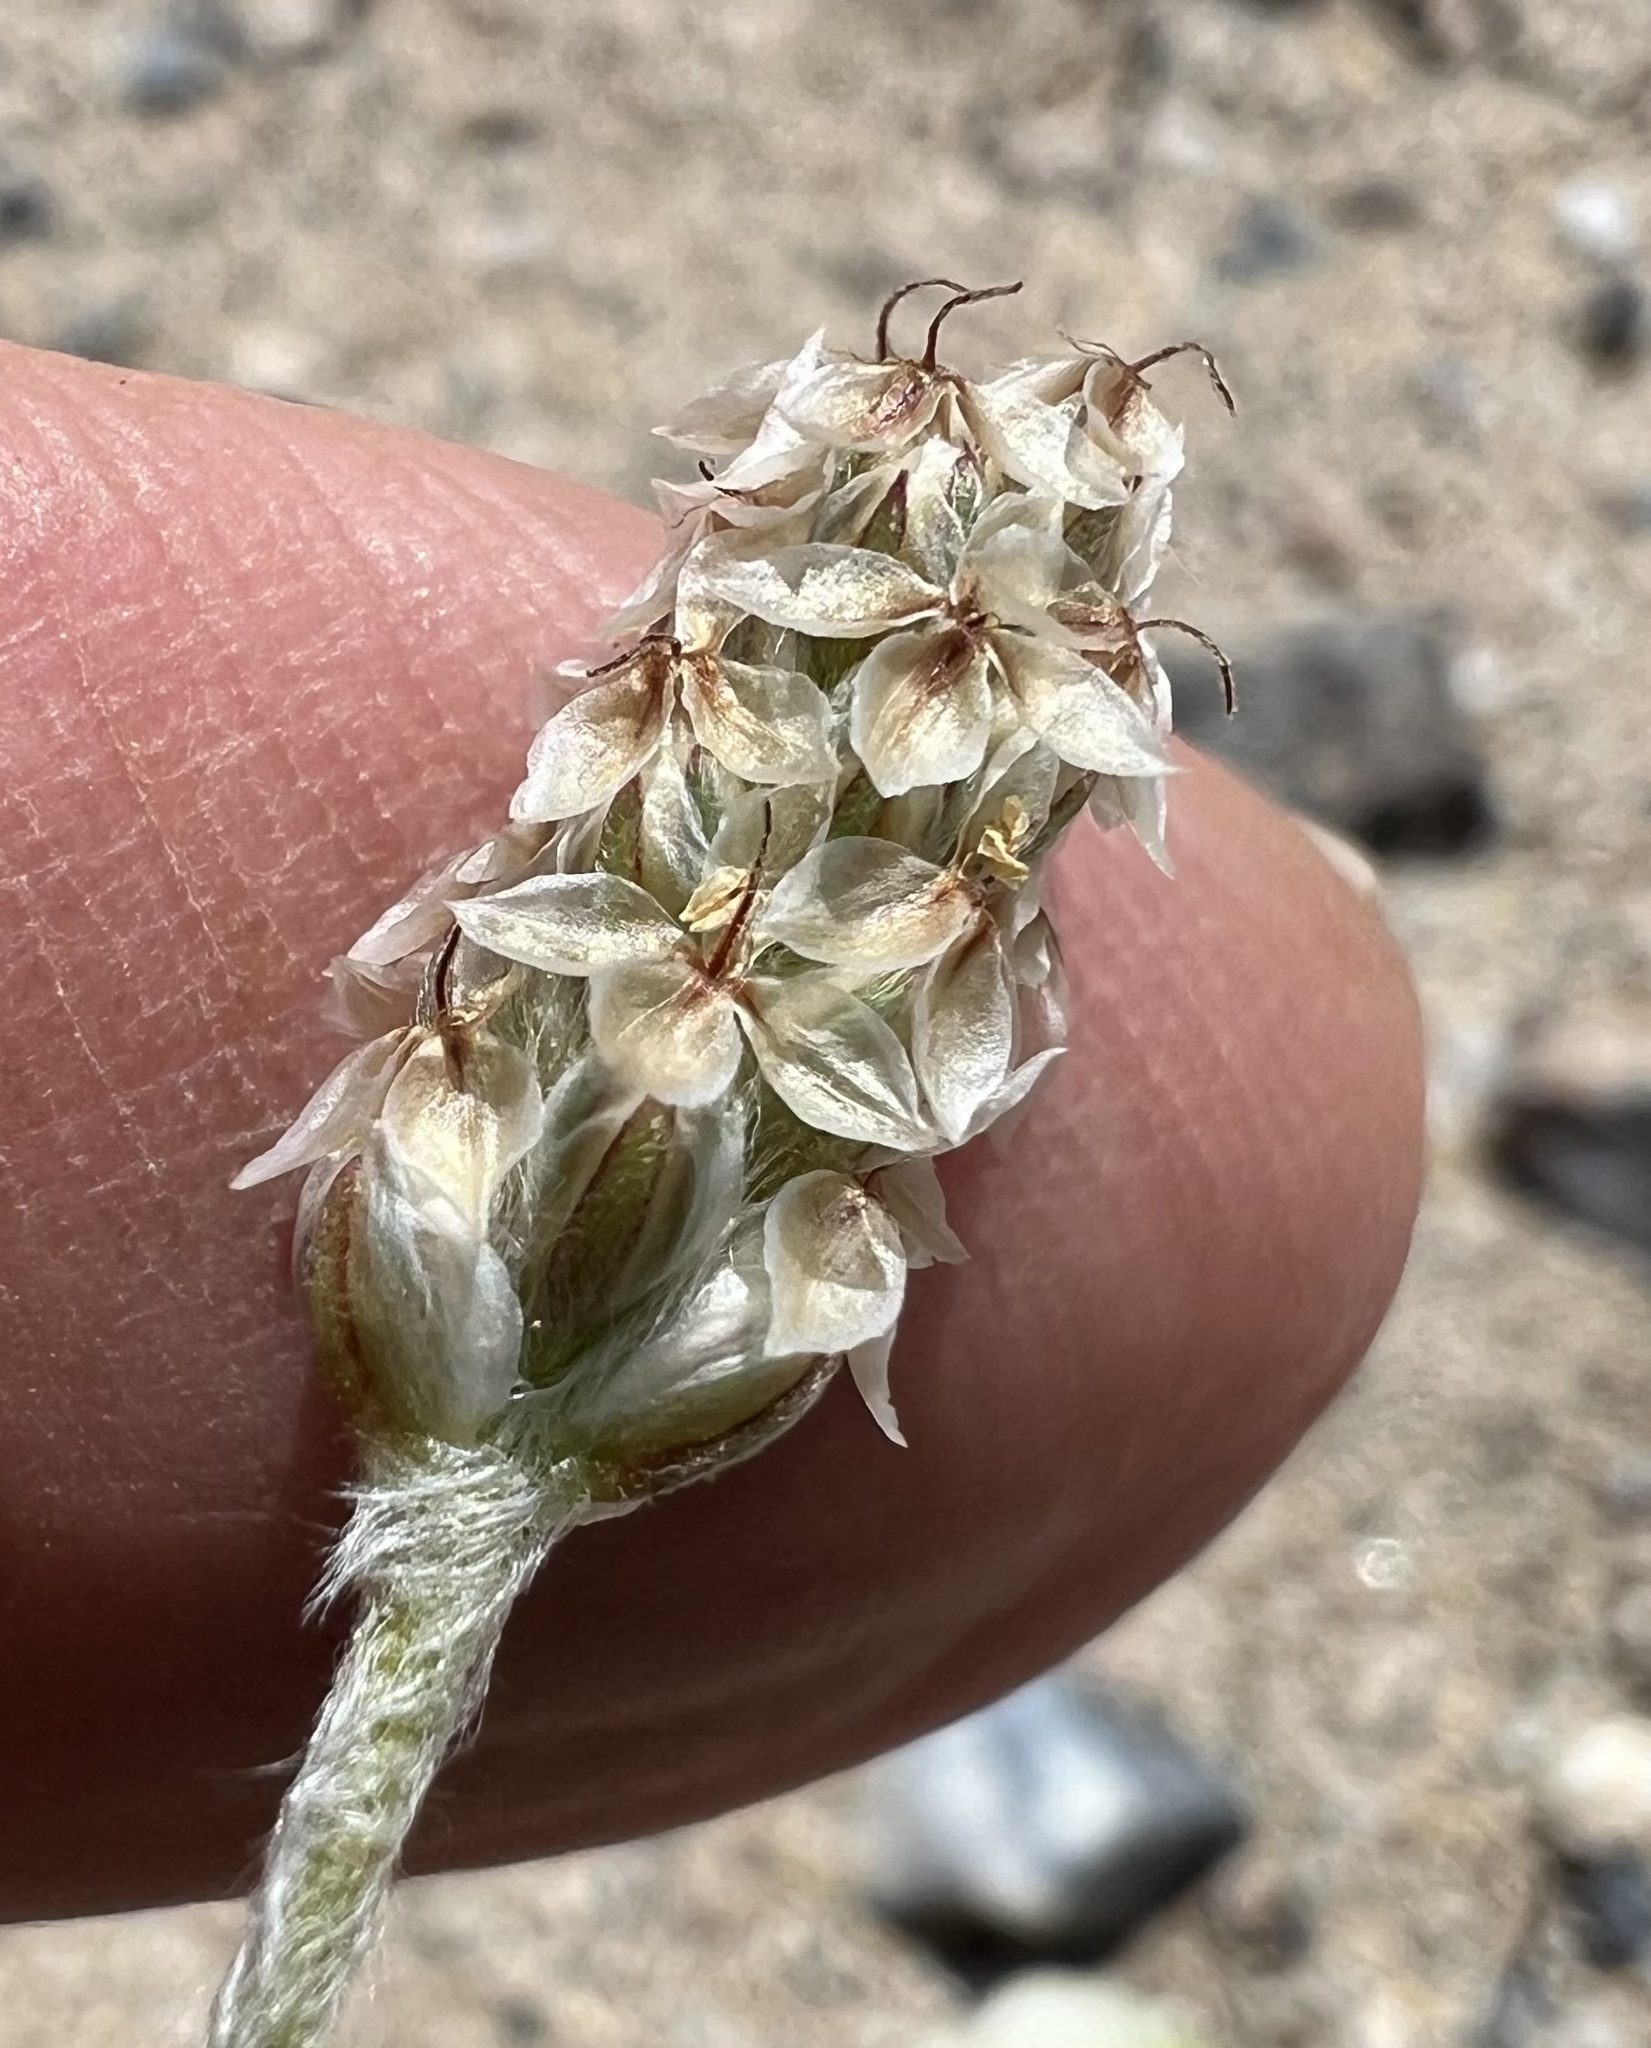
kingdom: Plantae
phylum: Tracheophyta
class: Magnoliopsida
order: Lamiales
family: Plantaginaceae
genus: Plantago
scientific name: Plantago ovata
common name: Blond plantain
